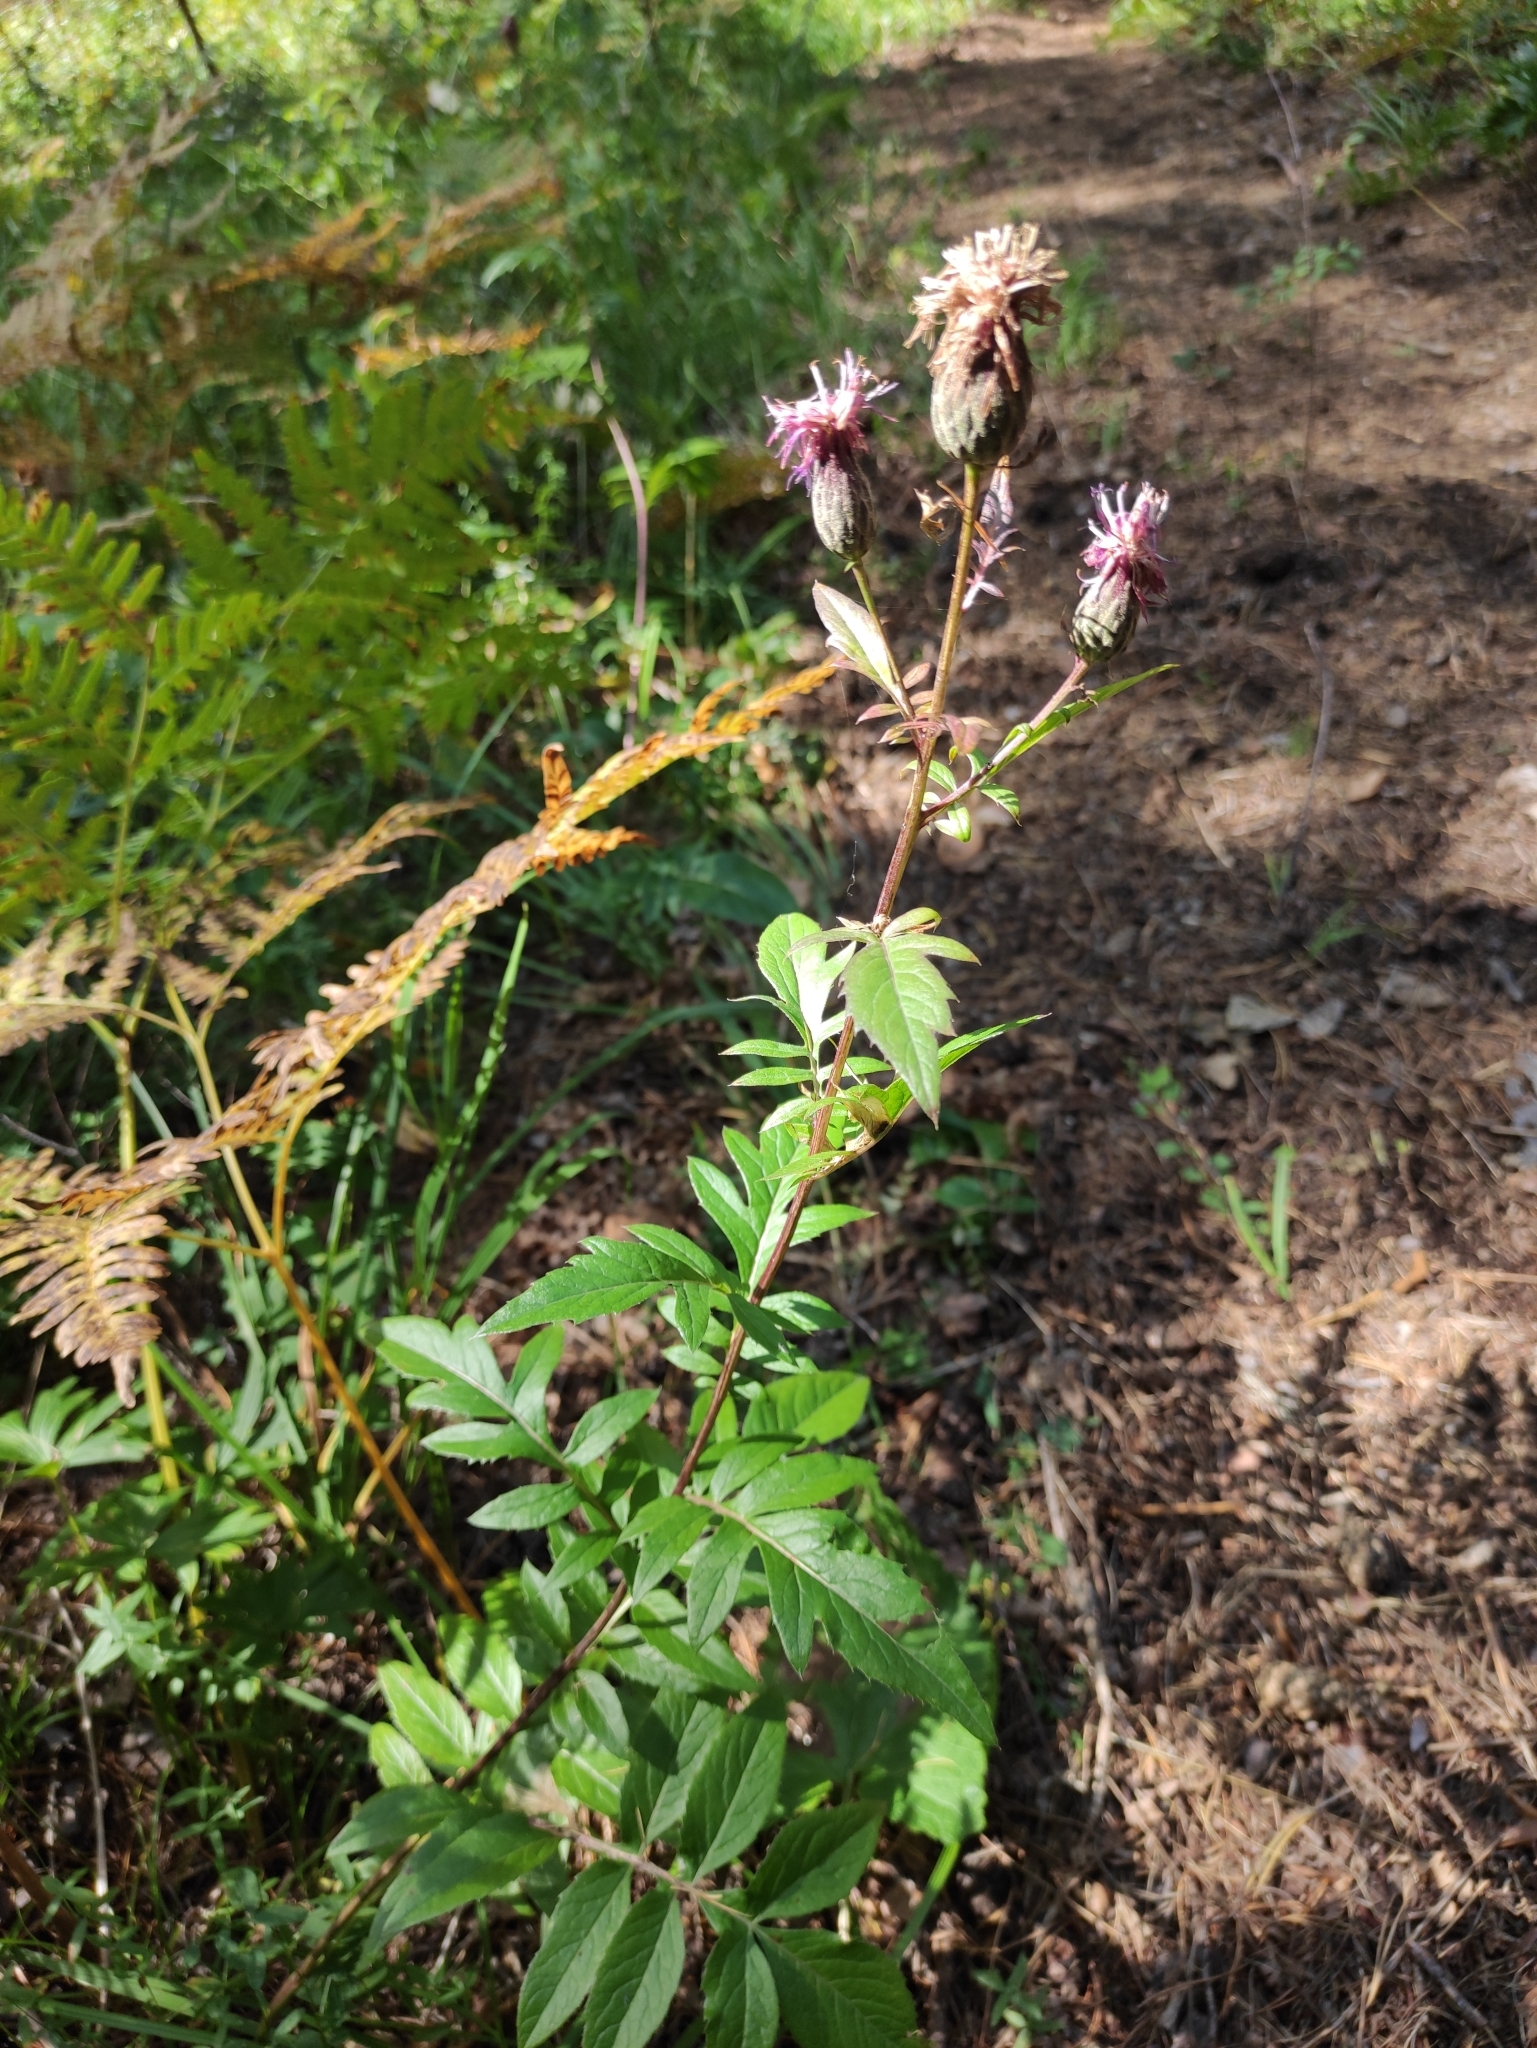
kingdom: Plantae
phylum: Tracheophyta
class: Magnoliopsida
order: Asterales
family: Asteraceae
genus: Serratula
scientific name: Serratula coronata
